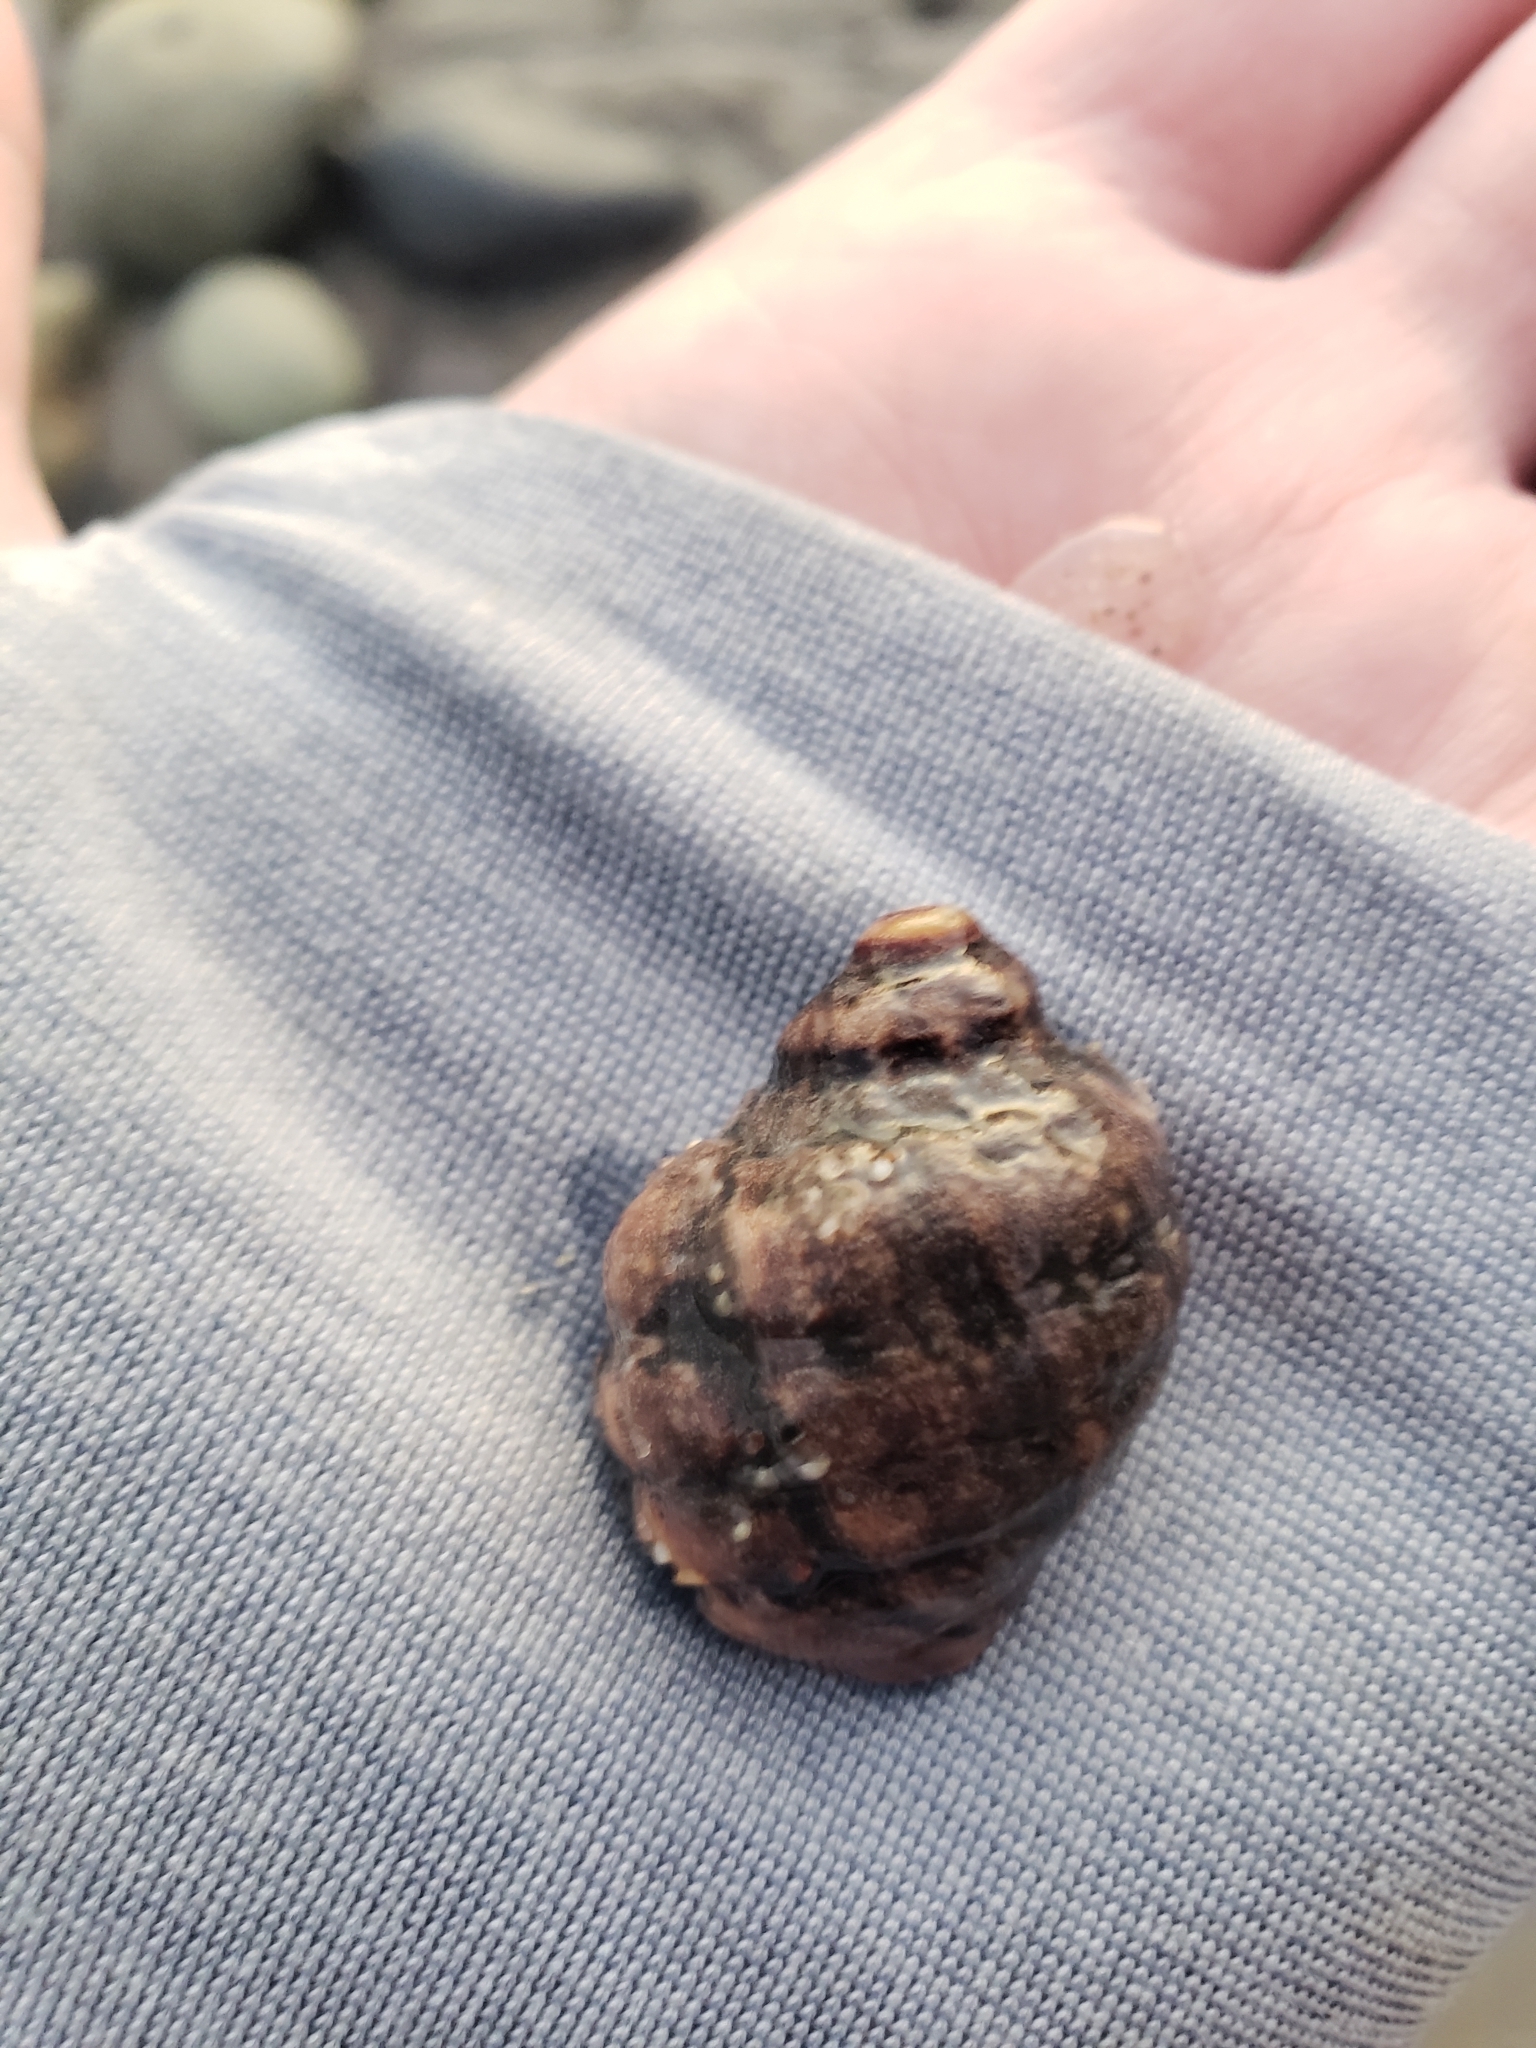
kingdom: Animalia
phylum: Mollusca
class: Gastropoda
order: Neogastropoda
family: Muricidae
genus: Mexacanthina
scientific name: Mexacanthina lugubris
